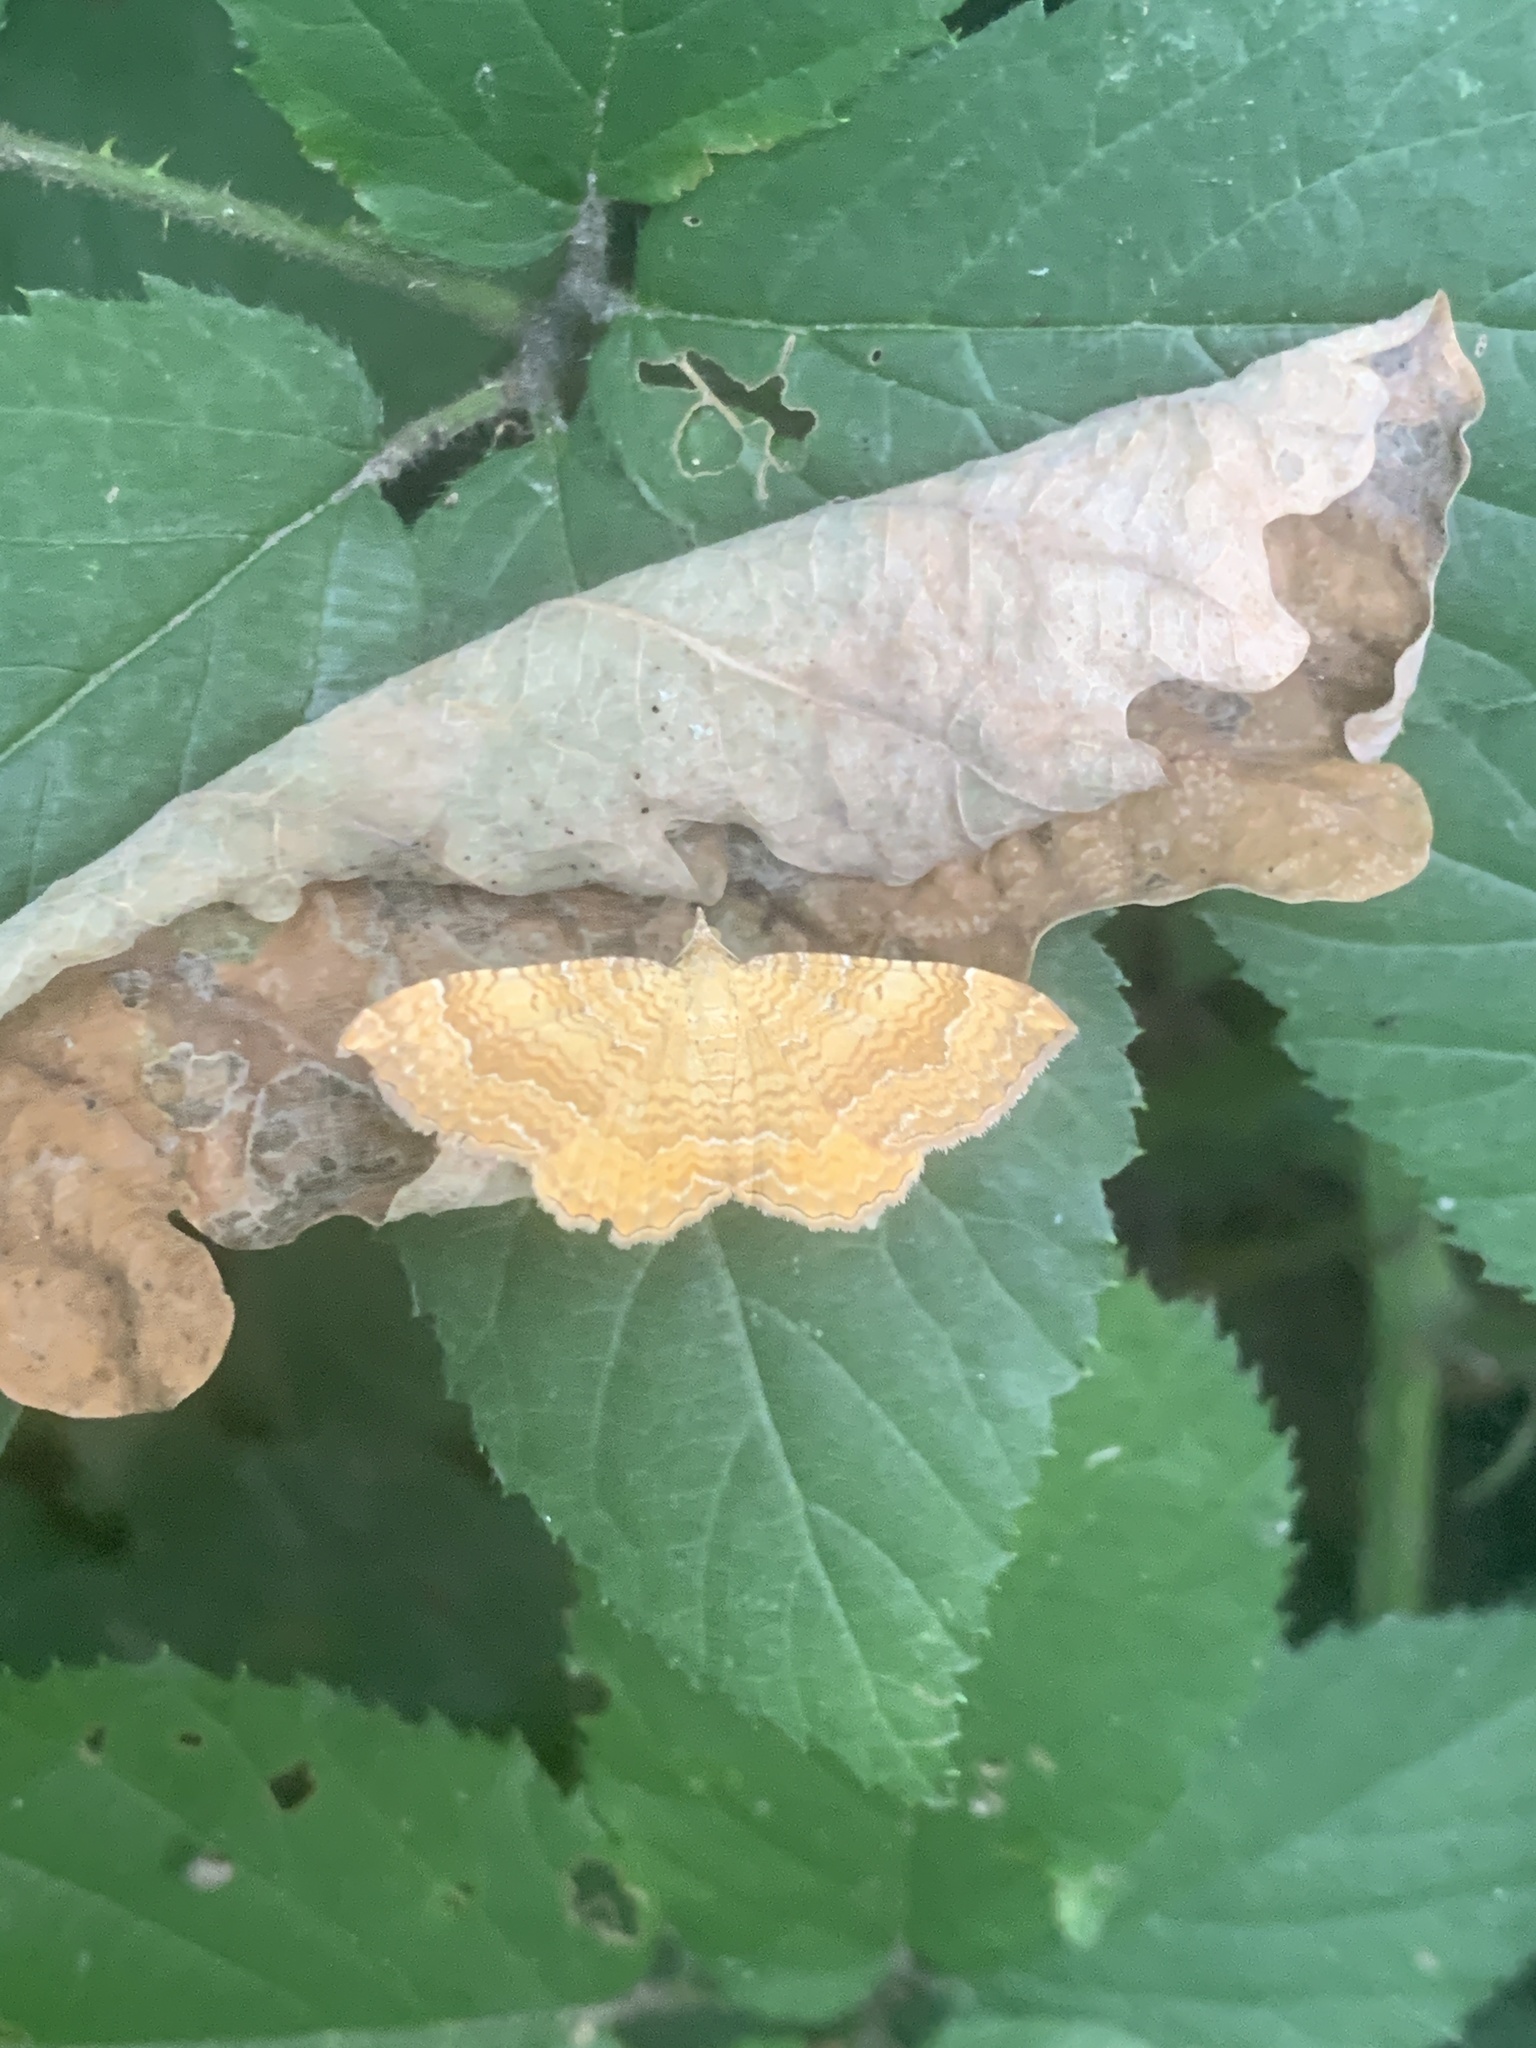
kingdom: Animalia
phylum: Arthropoda
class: Insecta
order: Lepidoptera
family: Geometridae
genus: Camptogramma
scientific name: Camptogramma bilineata
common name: Yellow shell
